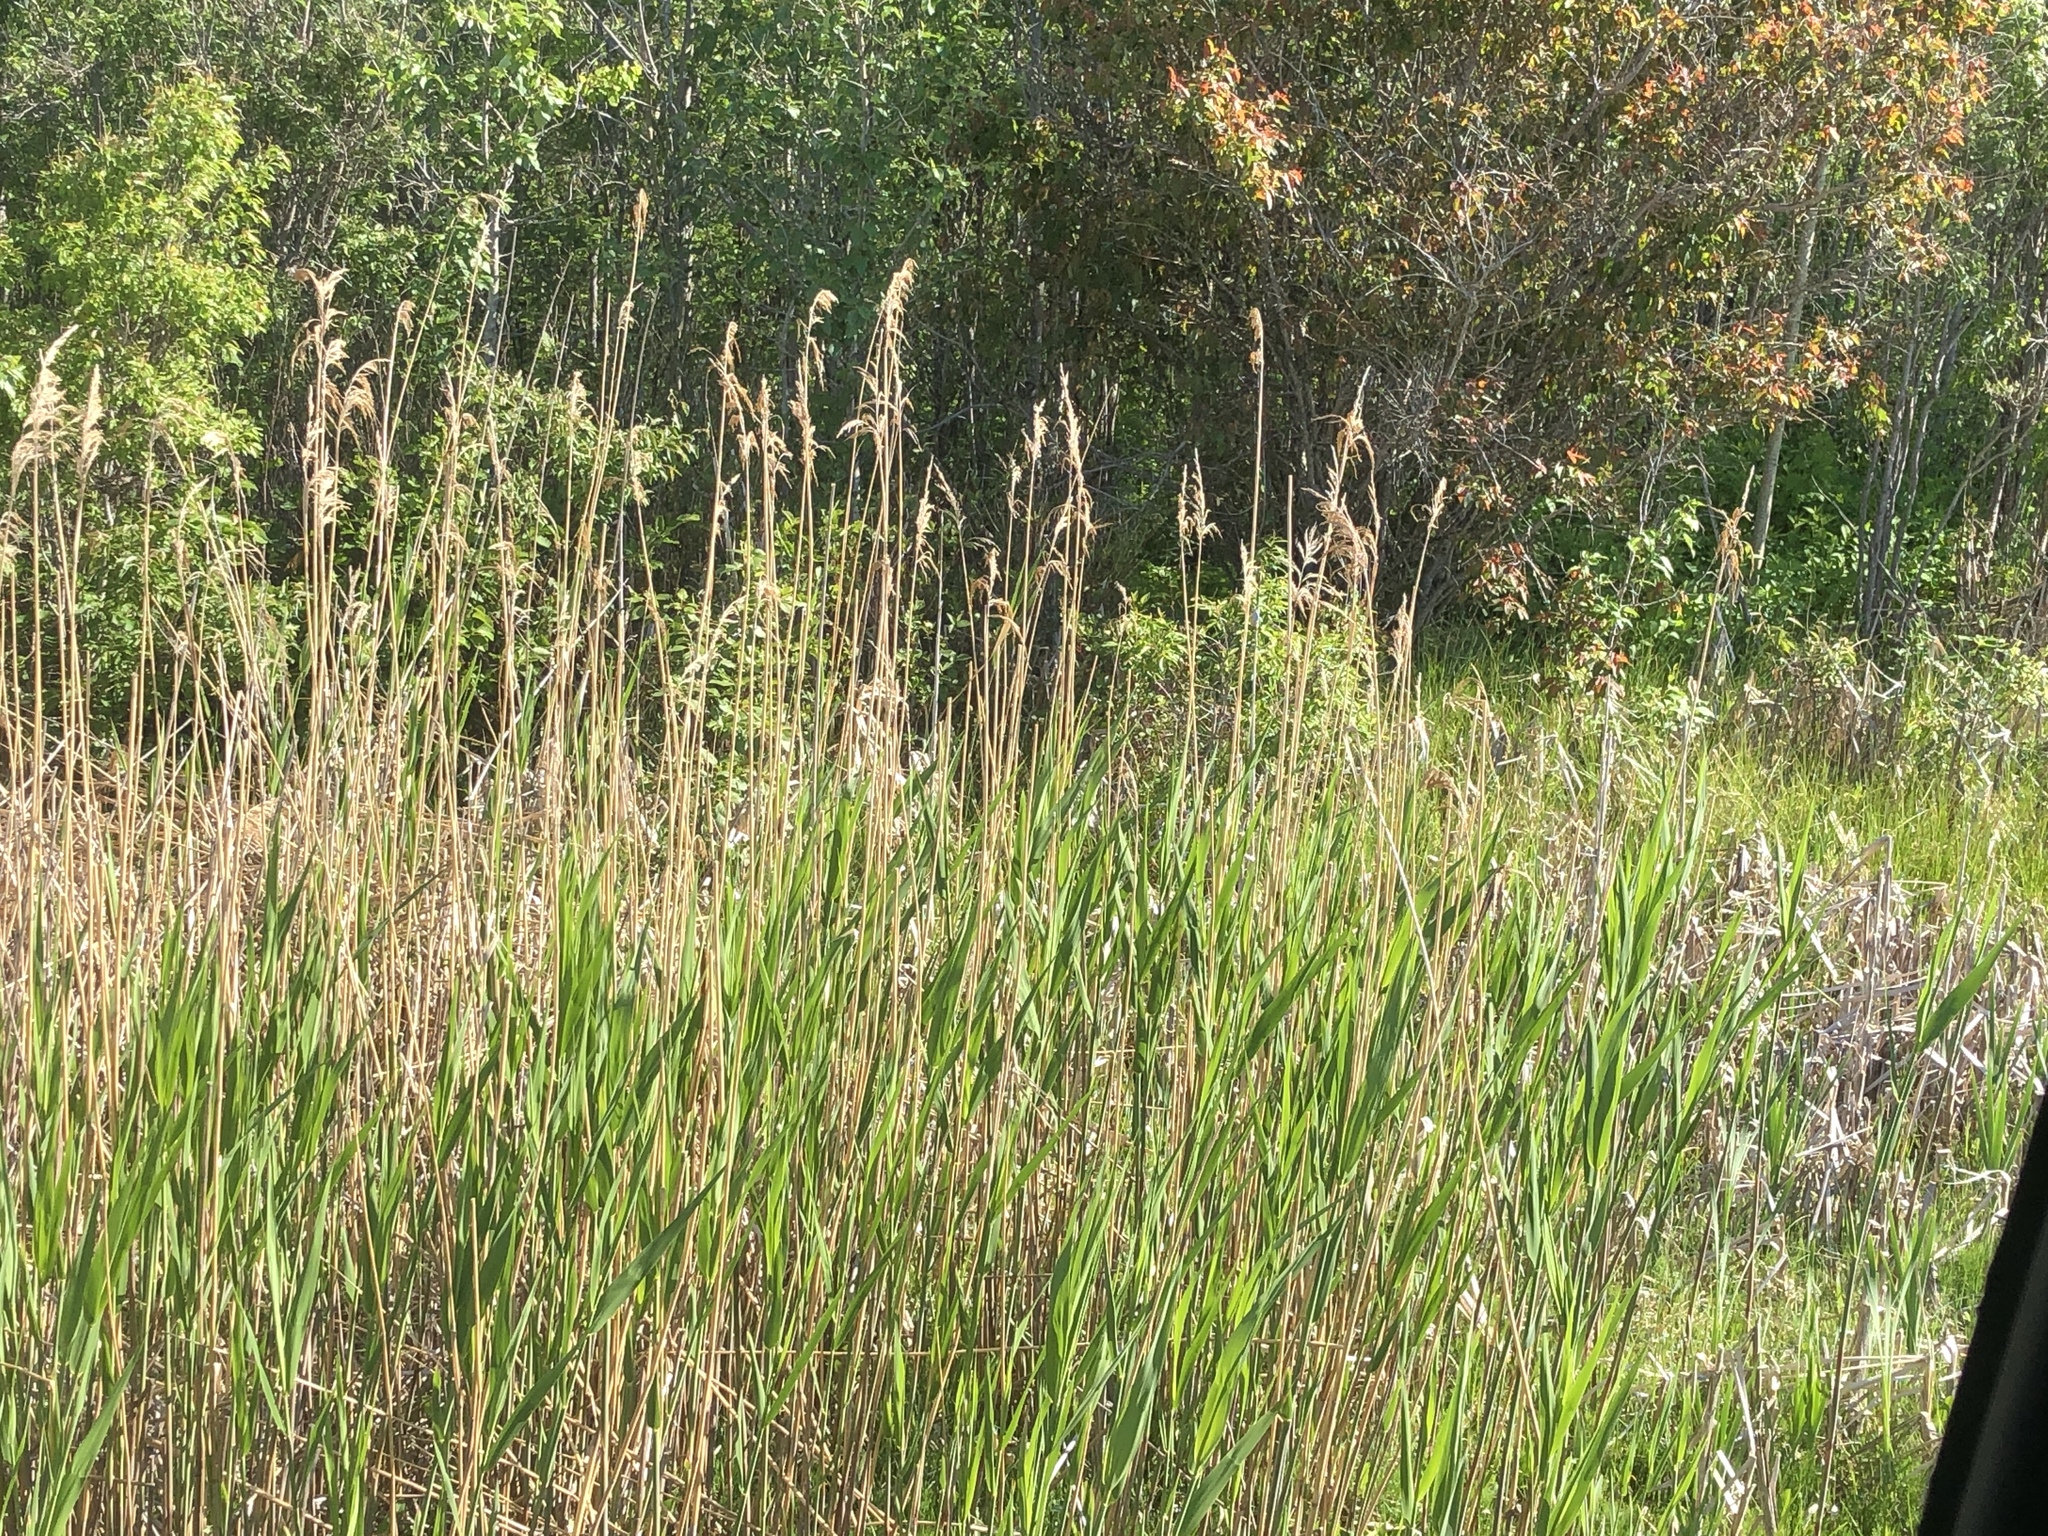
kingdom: Plantae
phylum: Tracheophyta
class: Liliopsida
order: Poales
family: Poaceae
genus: Phragmites
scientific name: Phragmites australis
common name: Common reed
